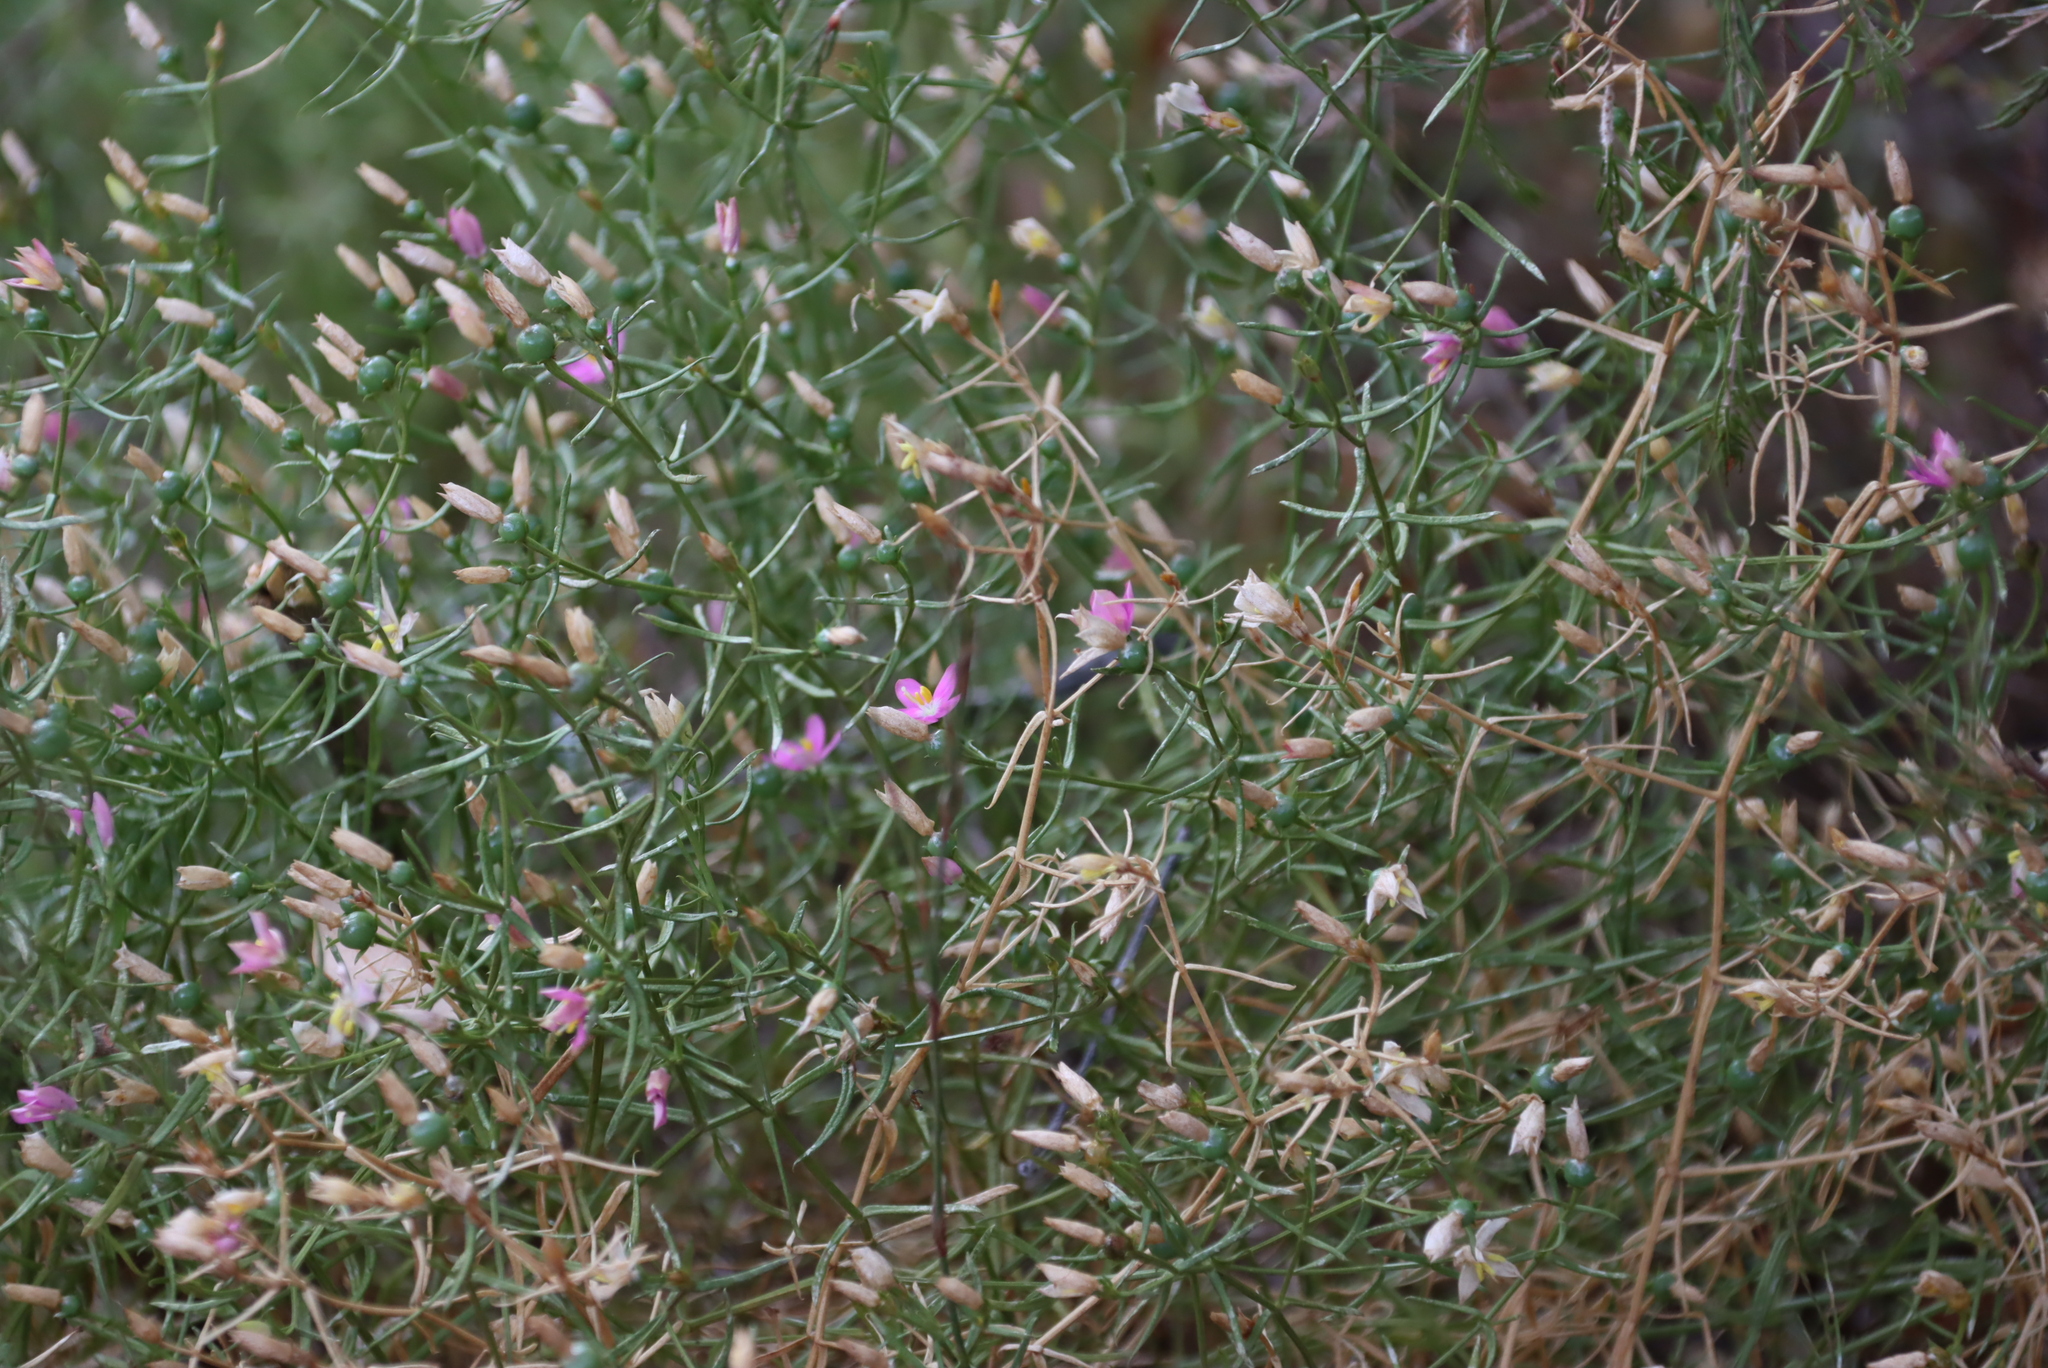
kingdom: Plantae
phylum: Tracheophyta
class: Magnoliopsida
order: Gentianales
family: Gentianaceae
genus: Chironia
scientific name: Chironia baccifera
